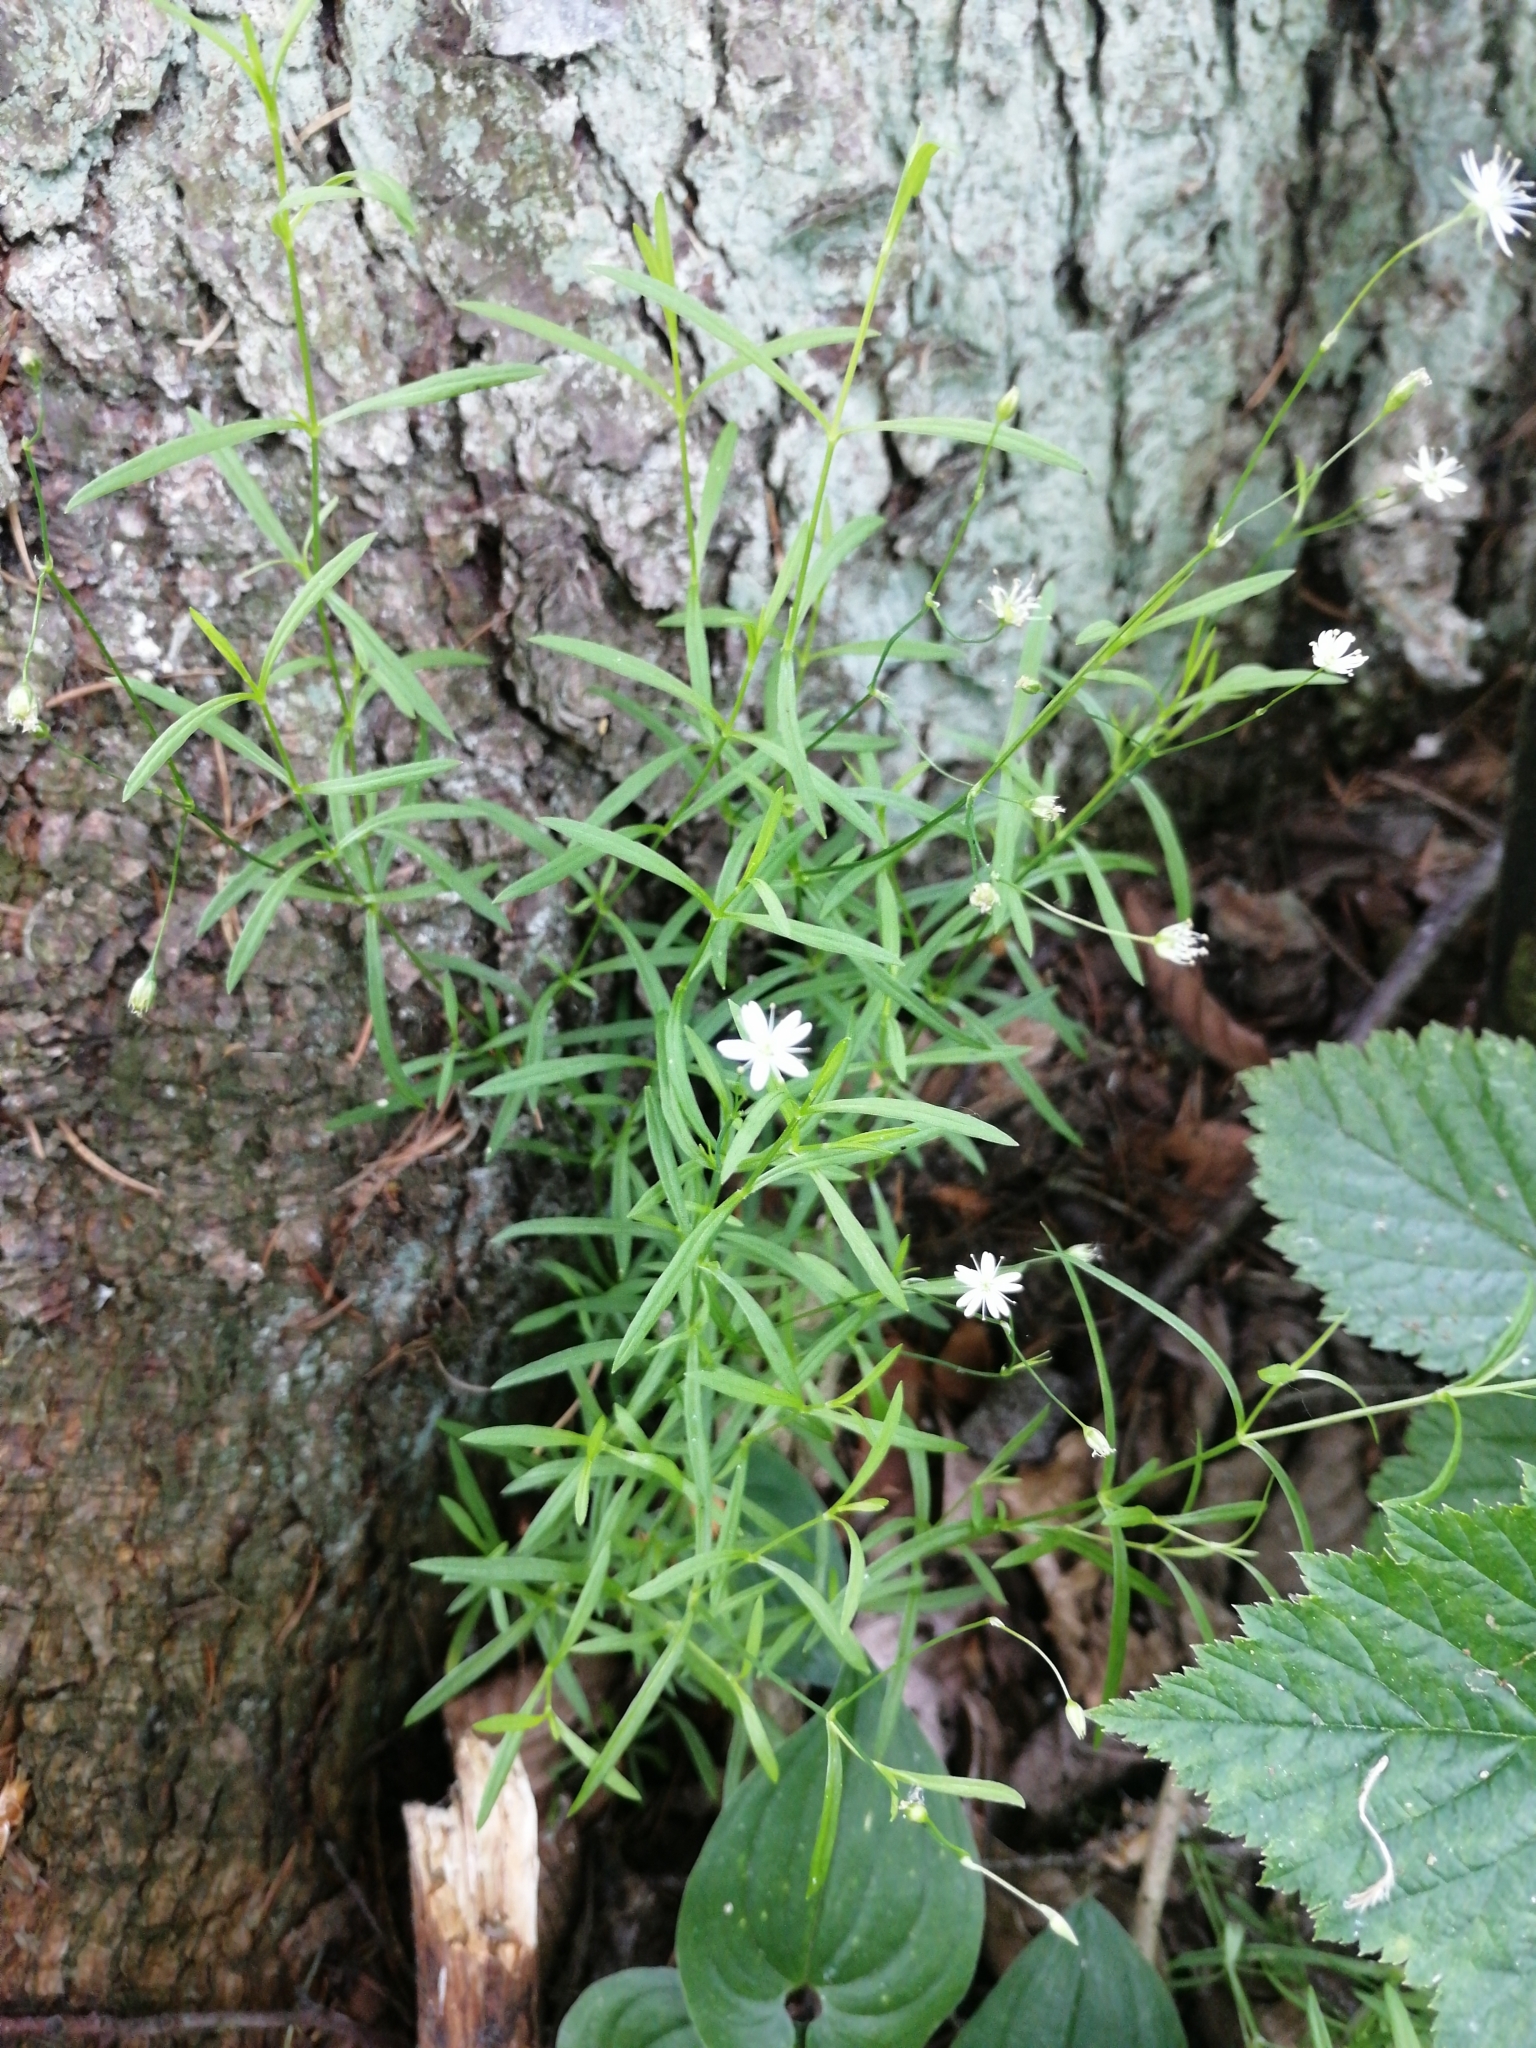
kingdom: Plantae
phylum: Tracheophyta
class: Magnoliopsida
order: Caryophyllales
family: Caryophyllaceae
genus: Stellaria
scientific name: Stellaria longifolia
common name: Long-leaved chickweed
